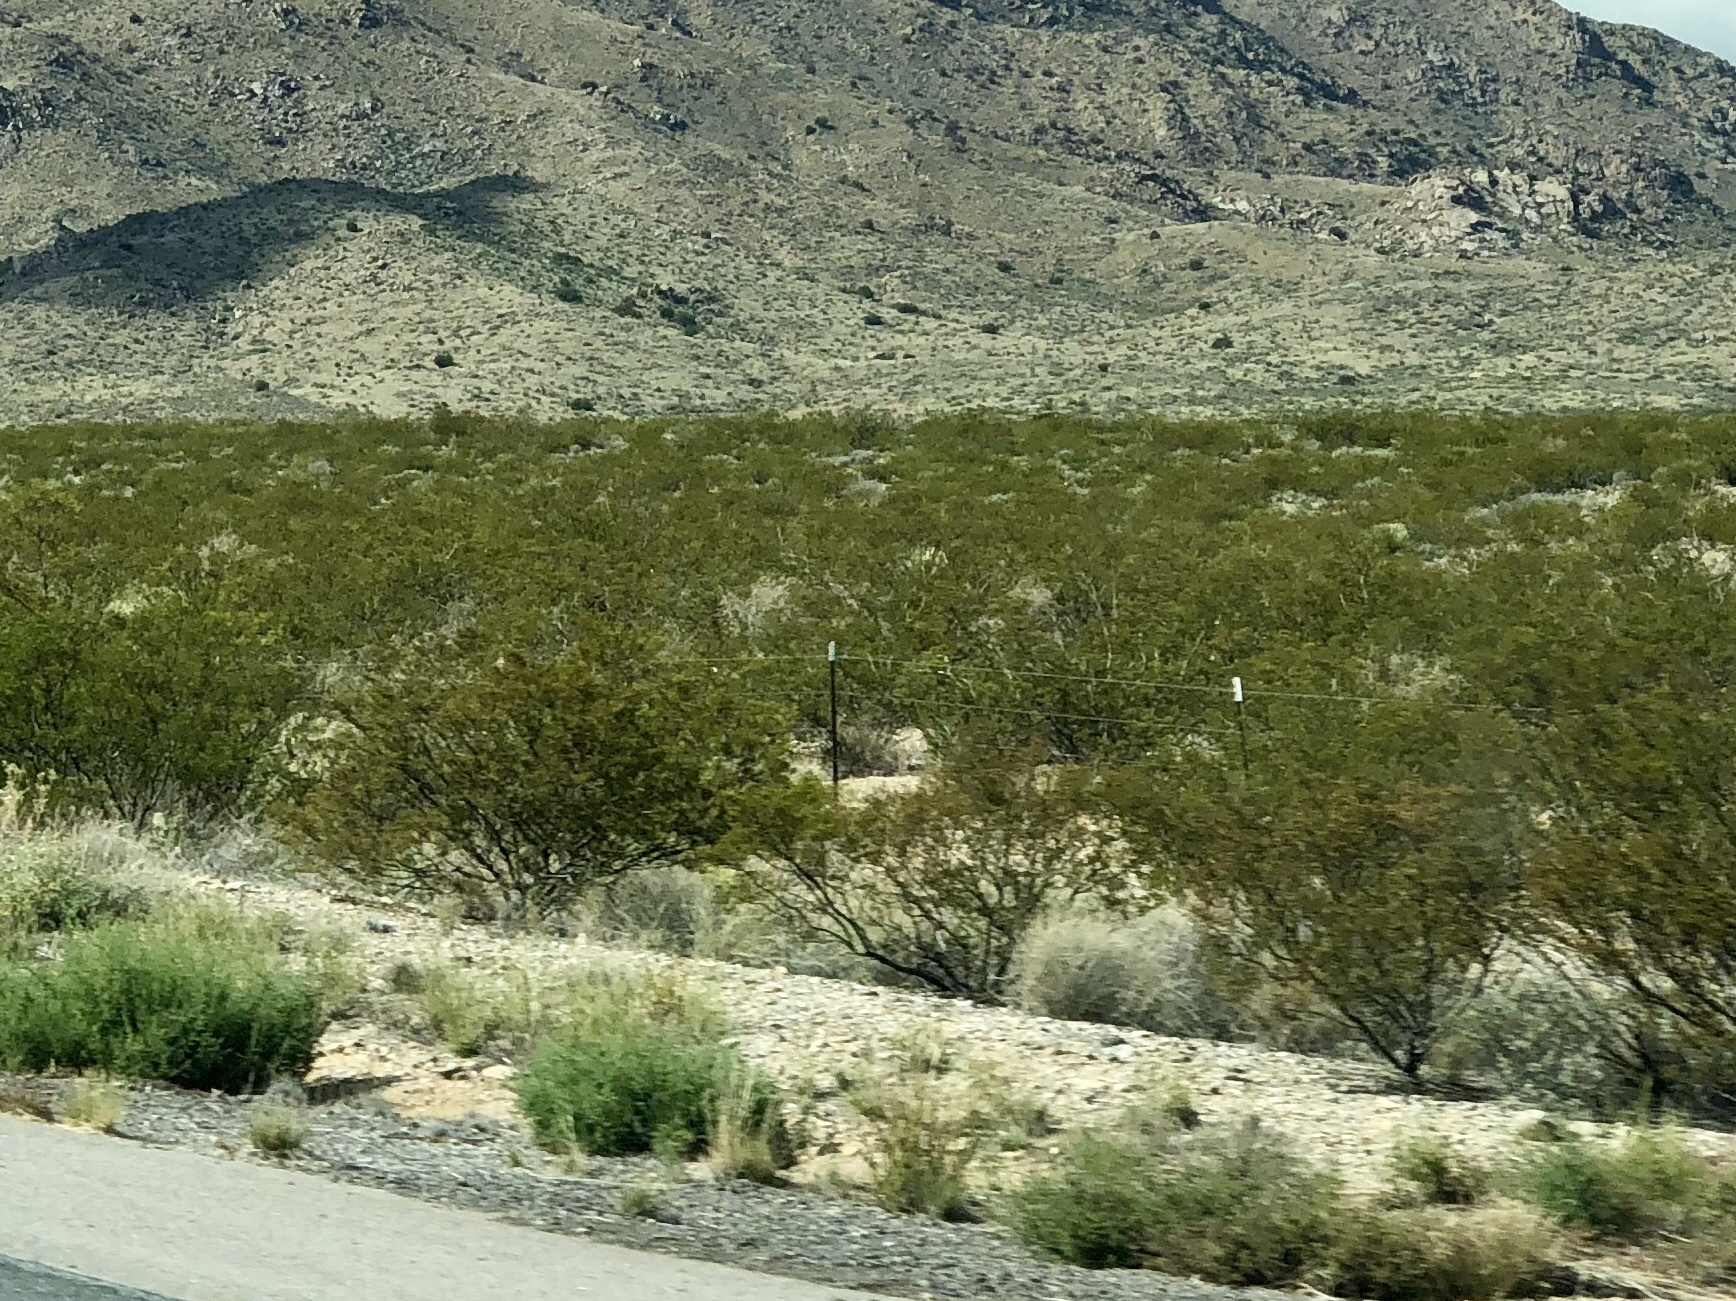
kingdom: Plantae
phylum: Tracheophyta
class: Magnoliopsida
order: Zygophyllales
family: Zygophyllaceae
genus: Larrea
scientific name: Larrea tridentata
